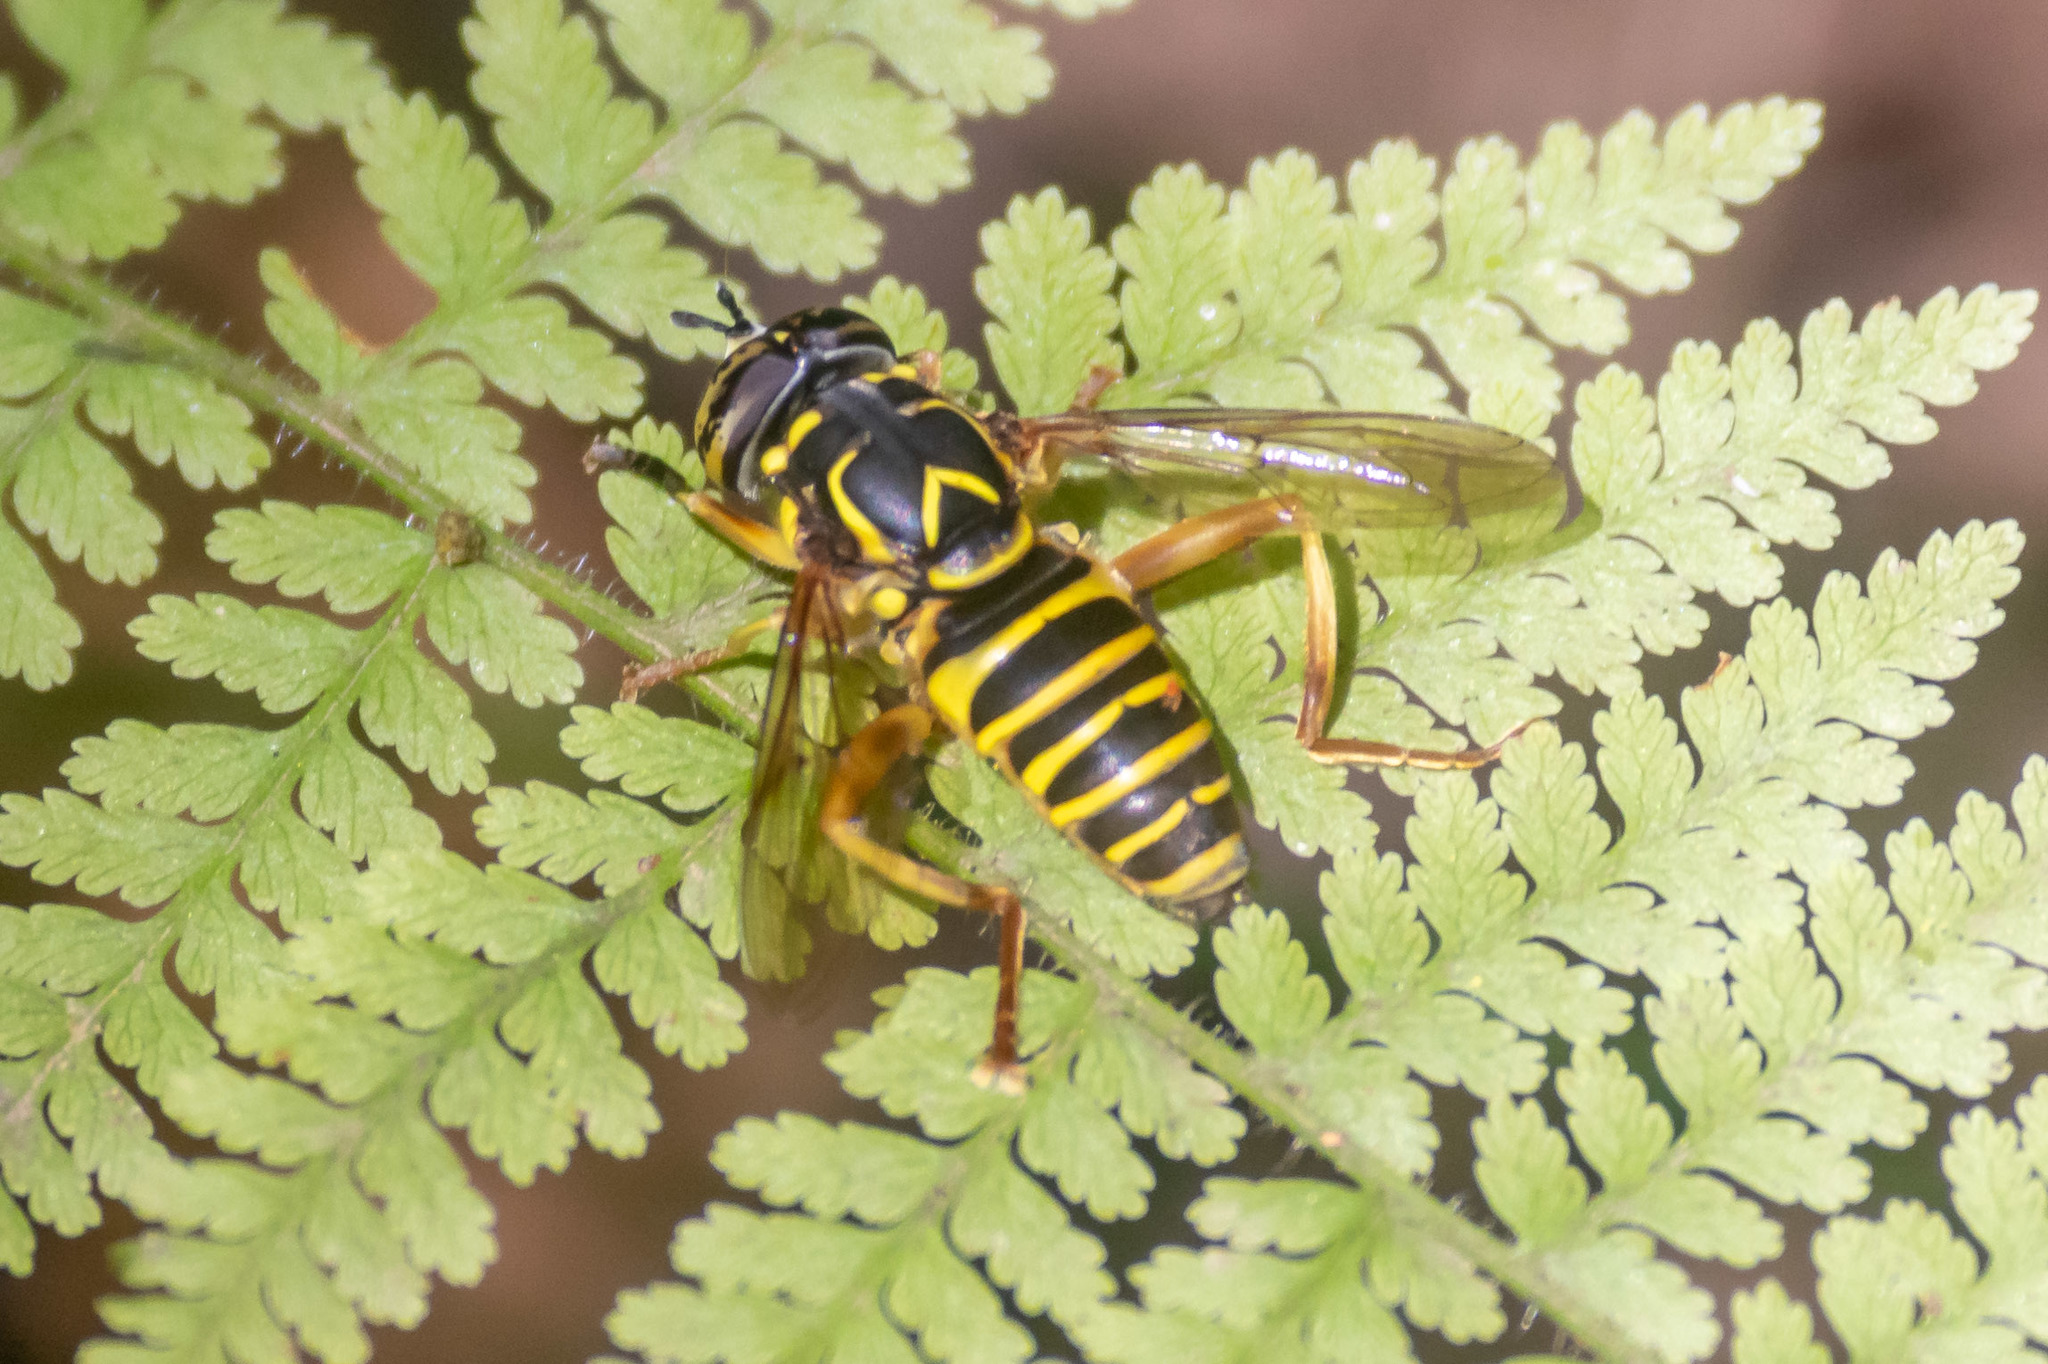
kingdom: Animalia
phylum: Arthropoda
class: Insecta
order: Diptera
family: Syrphidae
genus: Spilomyia
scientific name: Spilomyia longicornis
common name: Eastern hornet fly
